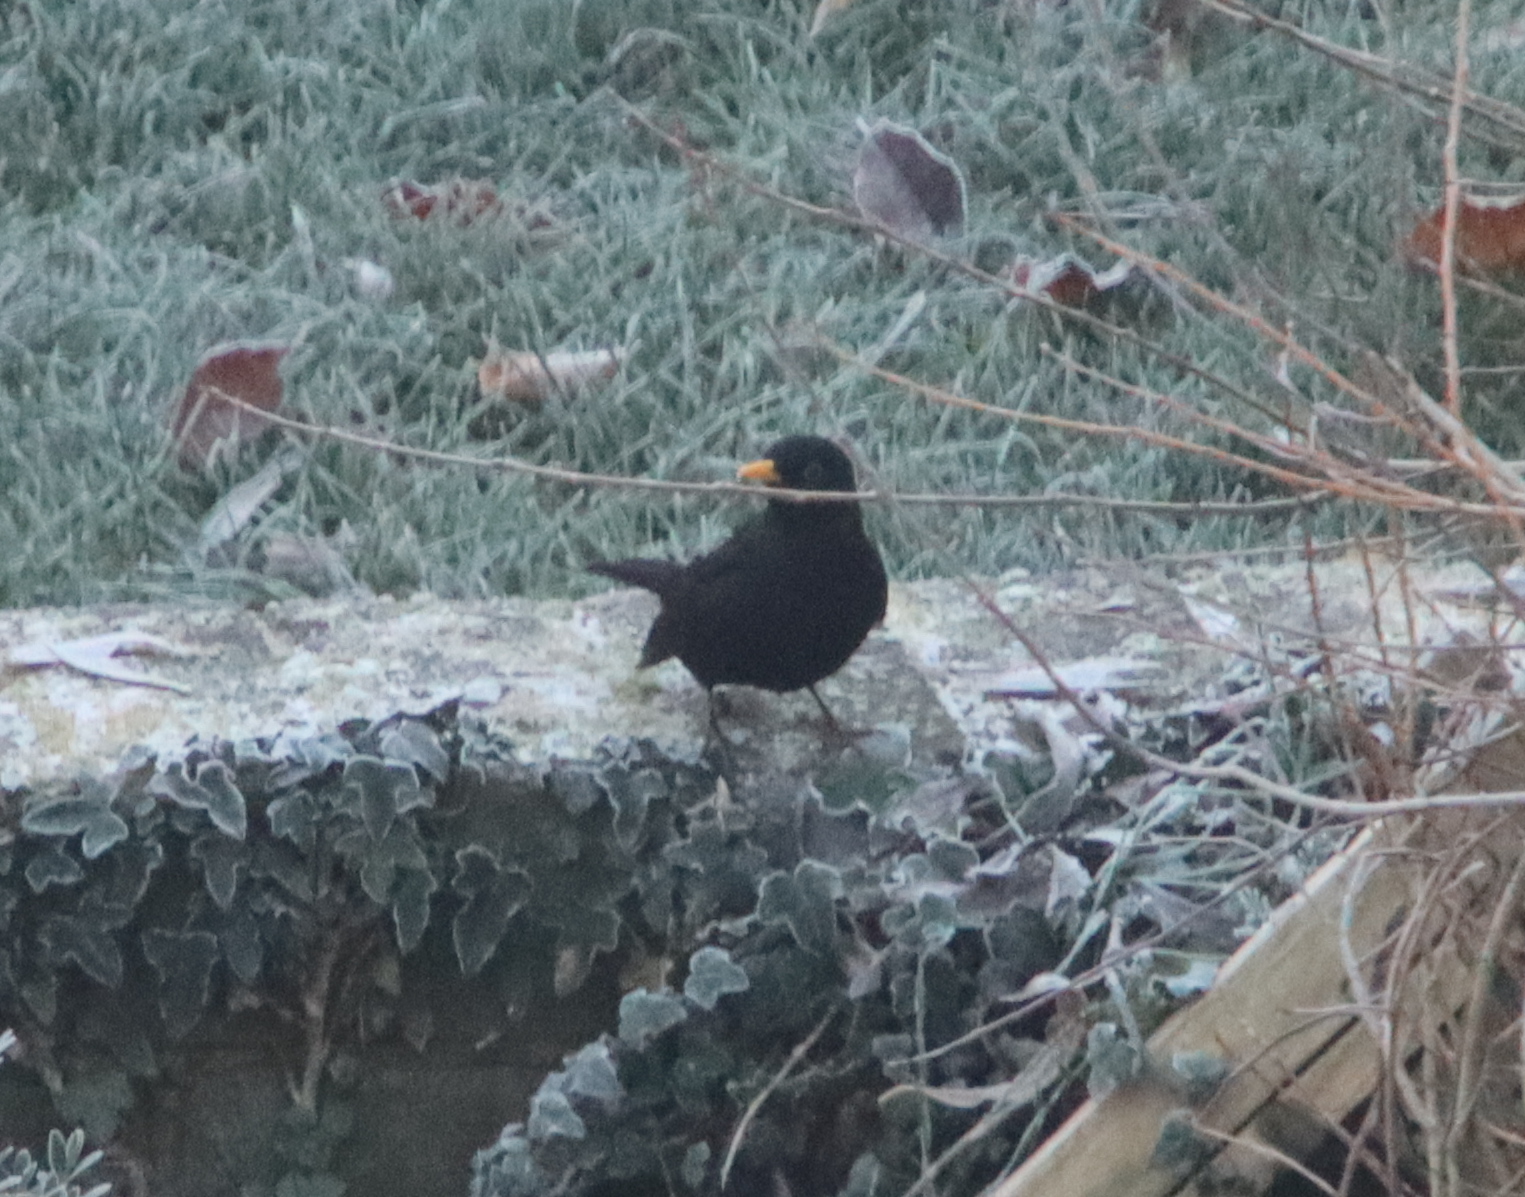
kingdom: Animalia
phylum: Chordata
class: Aves
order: Passeriformes
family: Turdidae
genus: Turdus
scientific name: Turdus merula
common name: Common blackbird
